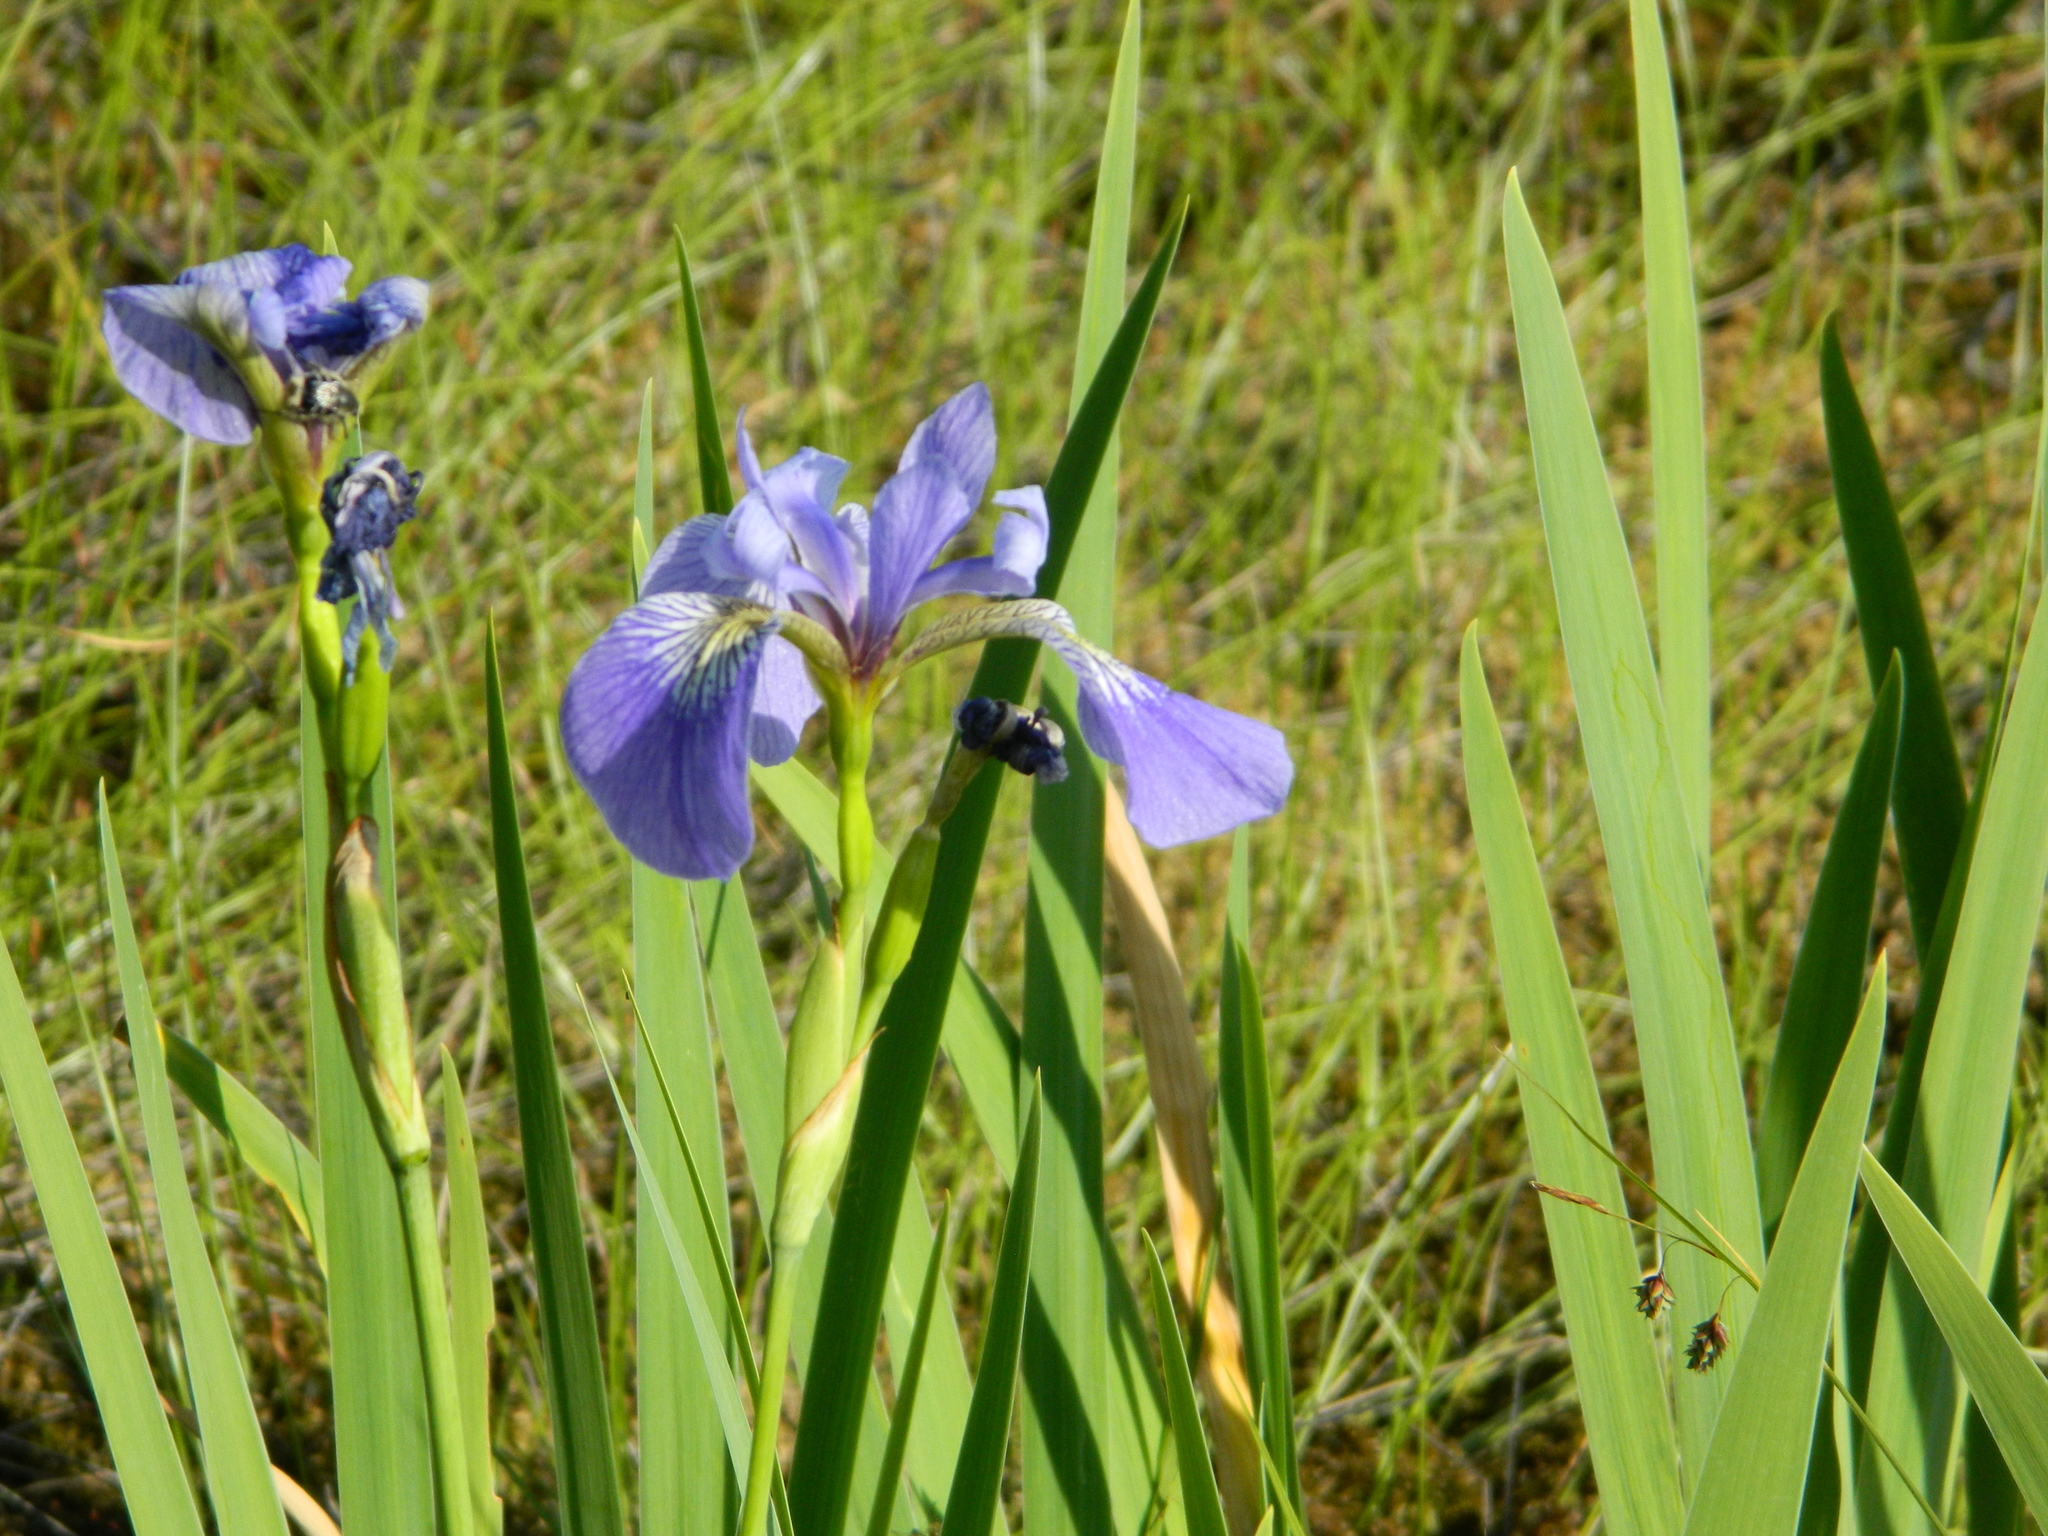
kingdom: Plantae
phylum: Tracheophyta
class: Liliopsida
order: Asparagales
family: Iridaceae
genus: Iris
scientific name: Iris versicolor
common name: Purple iris
